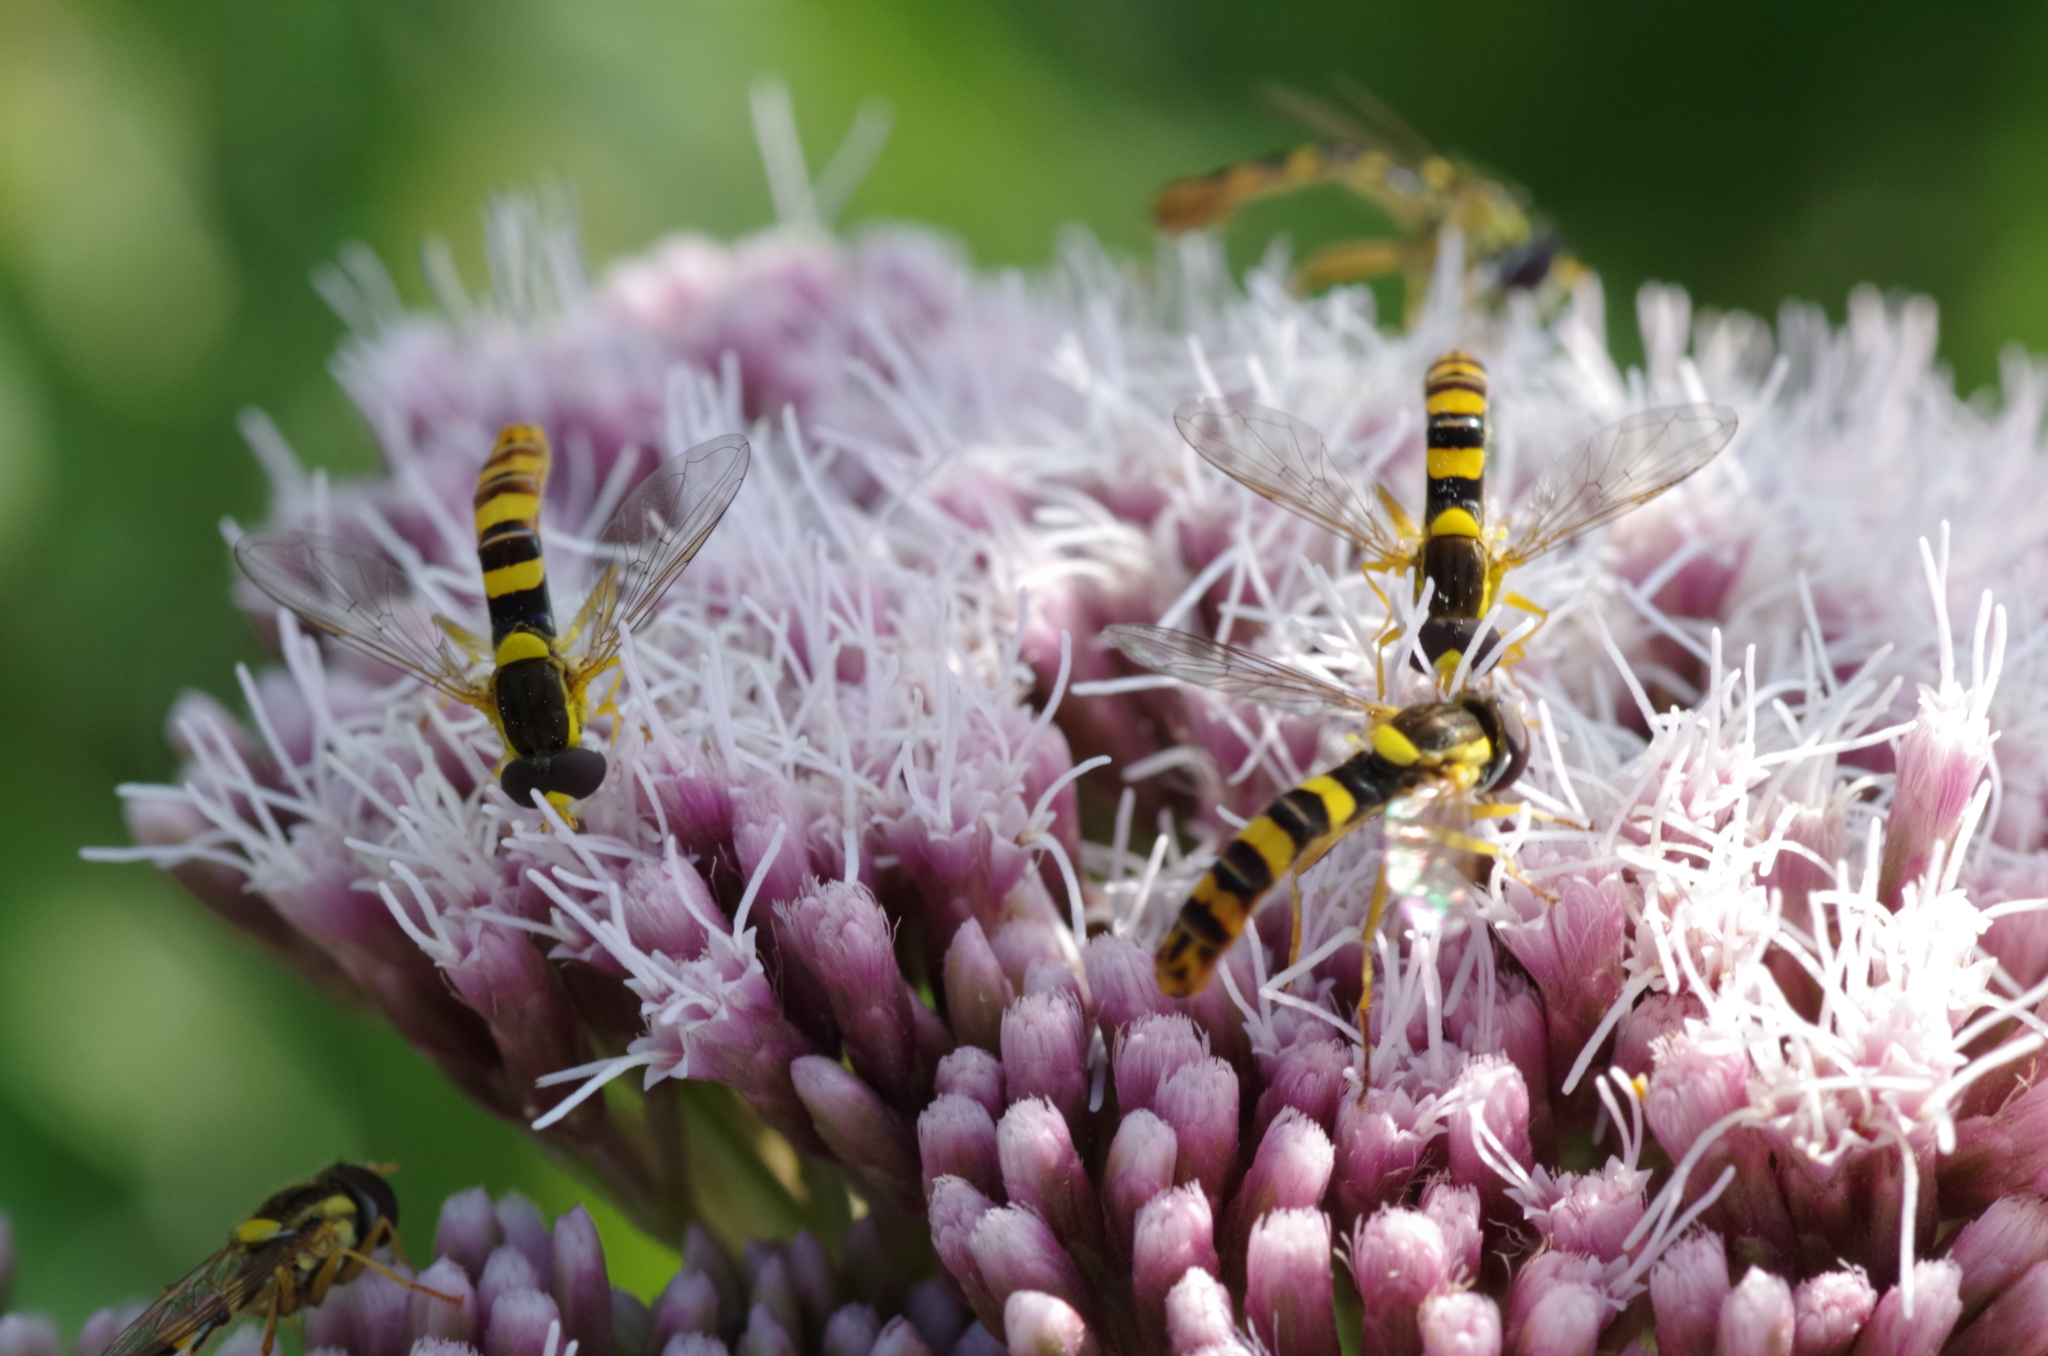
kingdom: Animalia
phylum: Arthropoda
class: Insecta
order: Diptera
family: Syrphidae
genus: Sphaerophoria
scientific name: Sphaerophoria scripta
